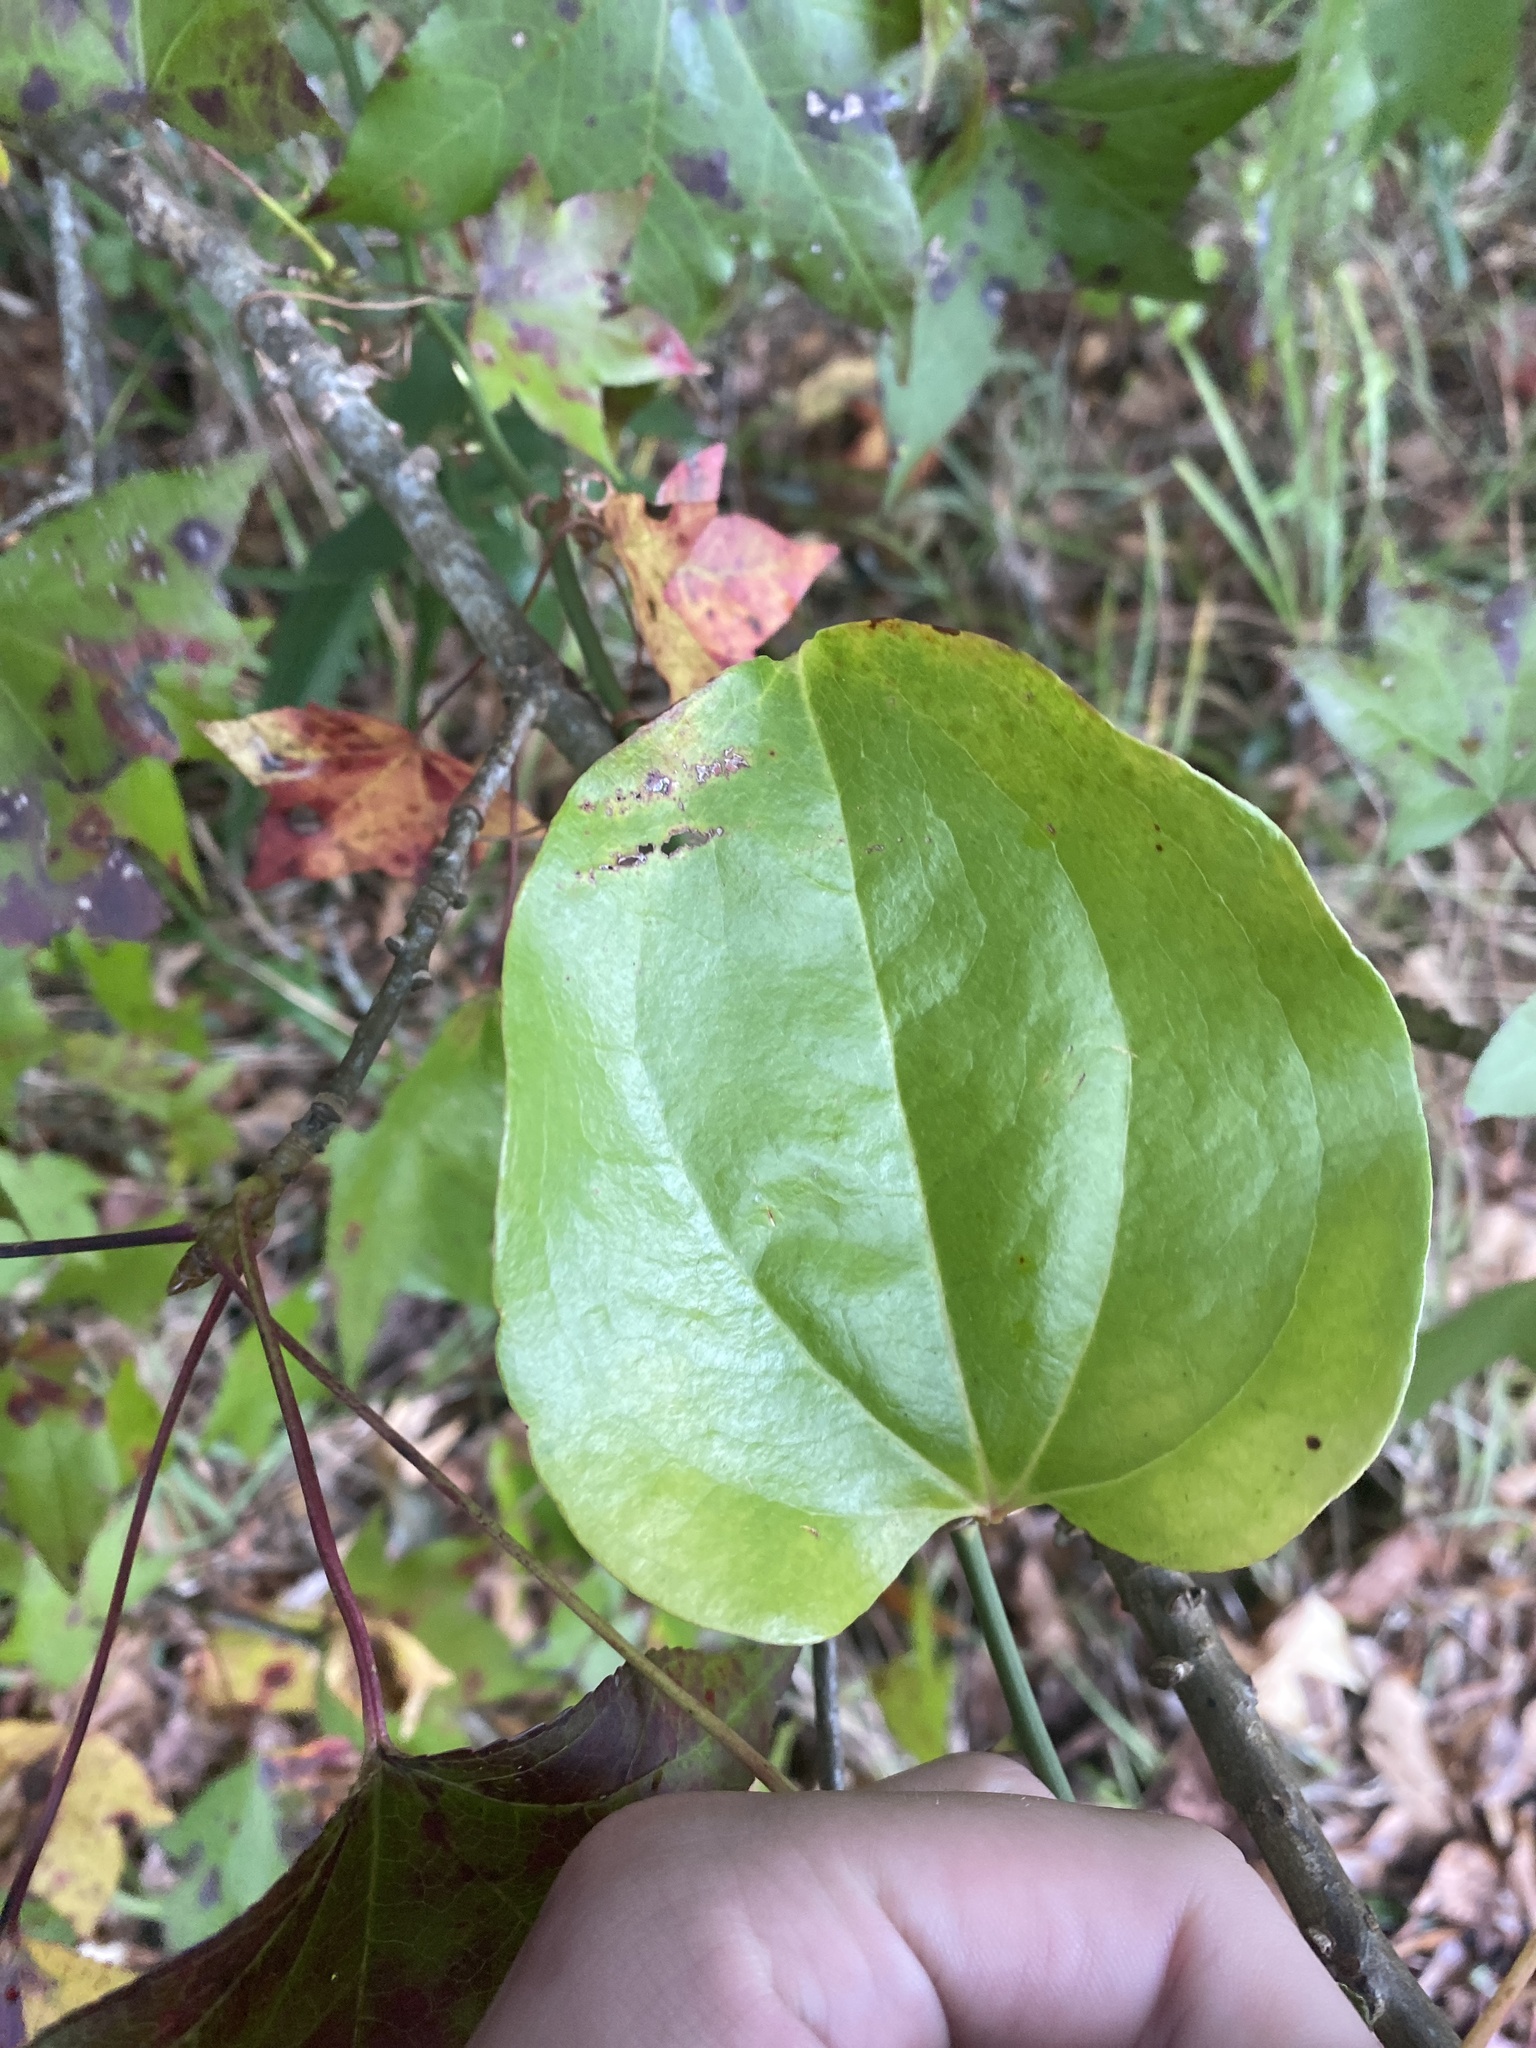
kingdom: Plantae
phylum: Tracheophyta
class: Liliopsida
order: Liliales
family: Smilacaceae
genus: Smilax
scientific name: Smilax rotundifolia
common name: Bullbriar
